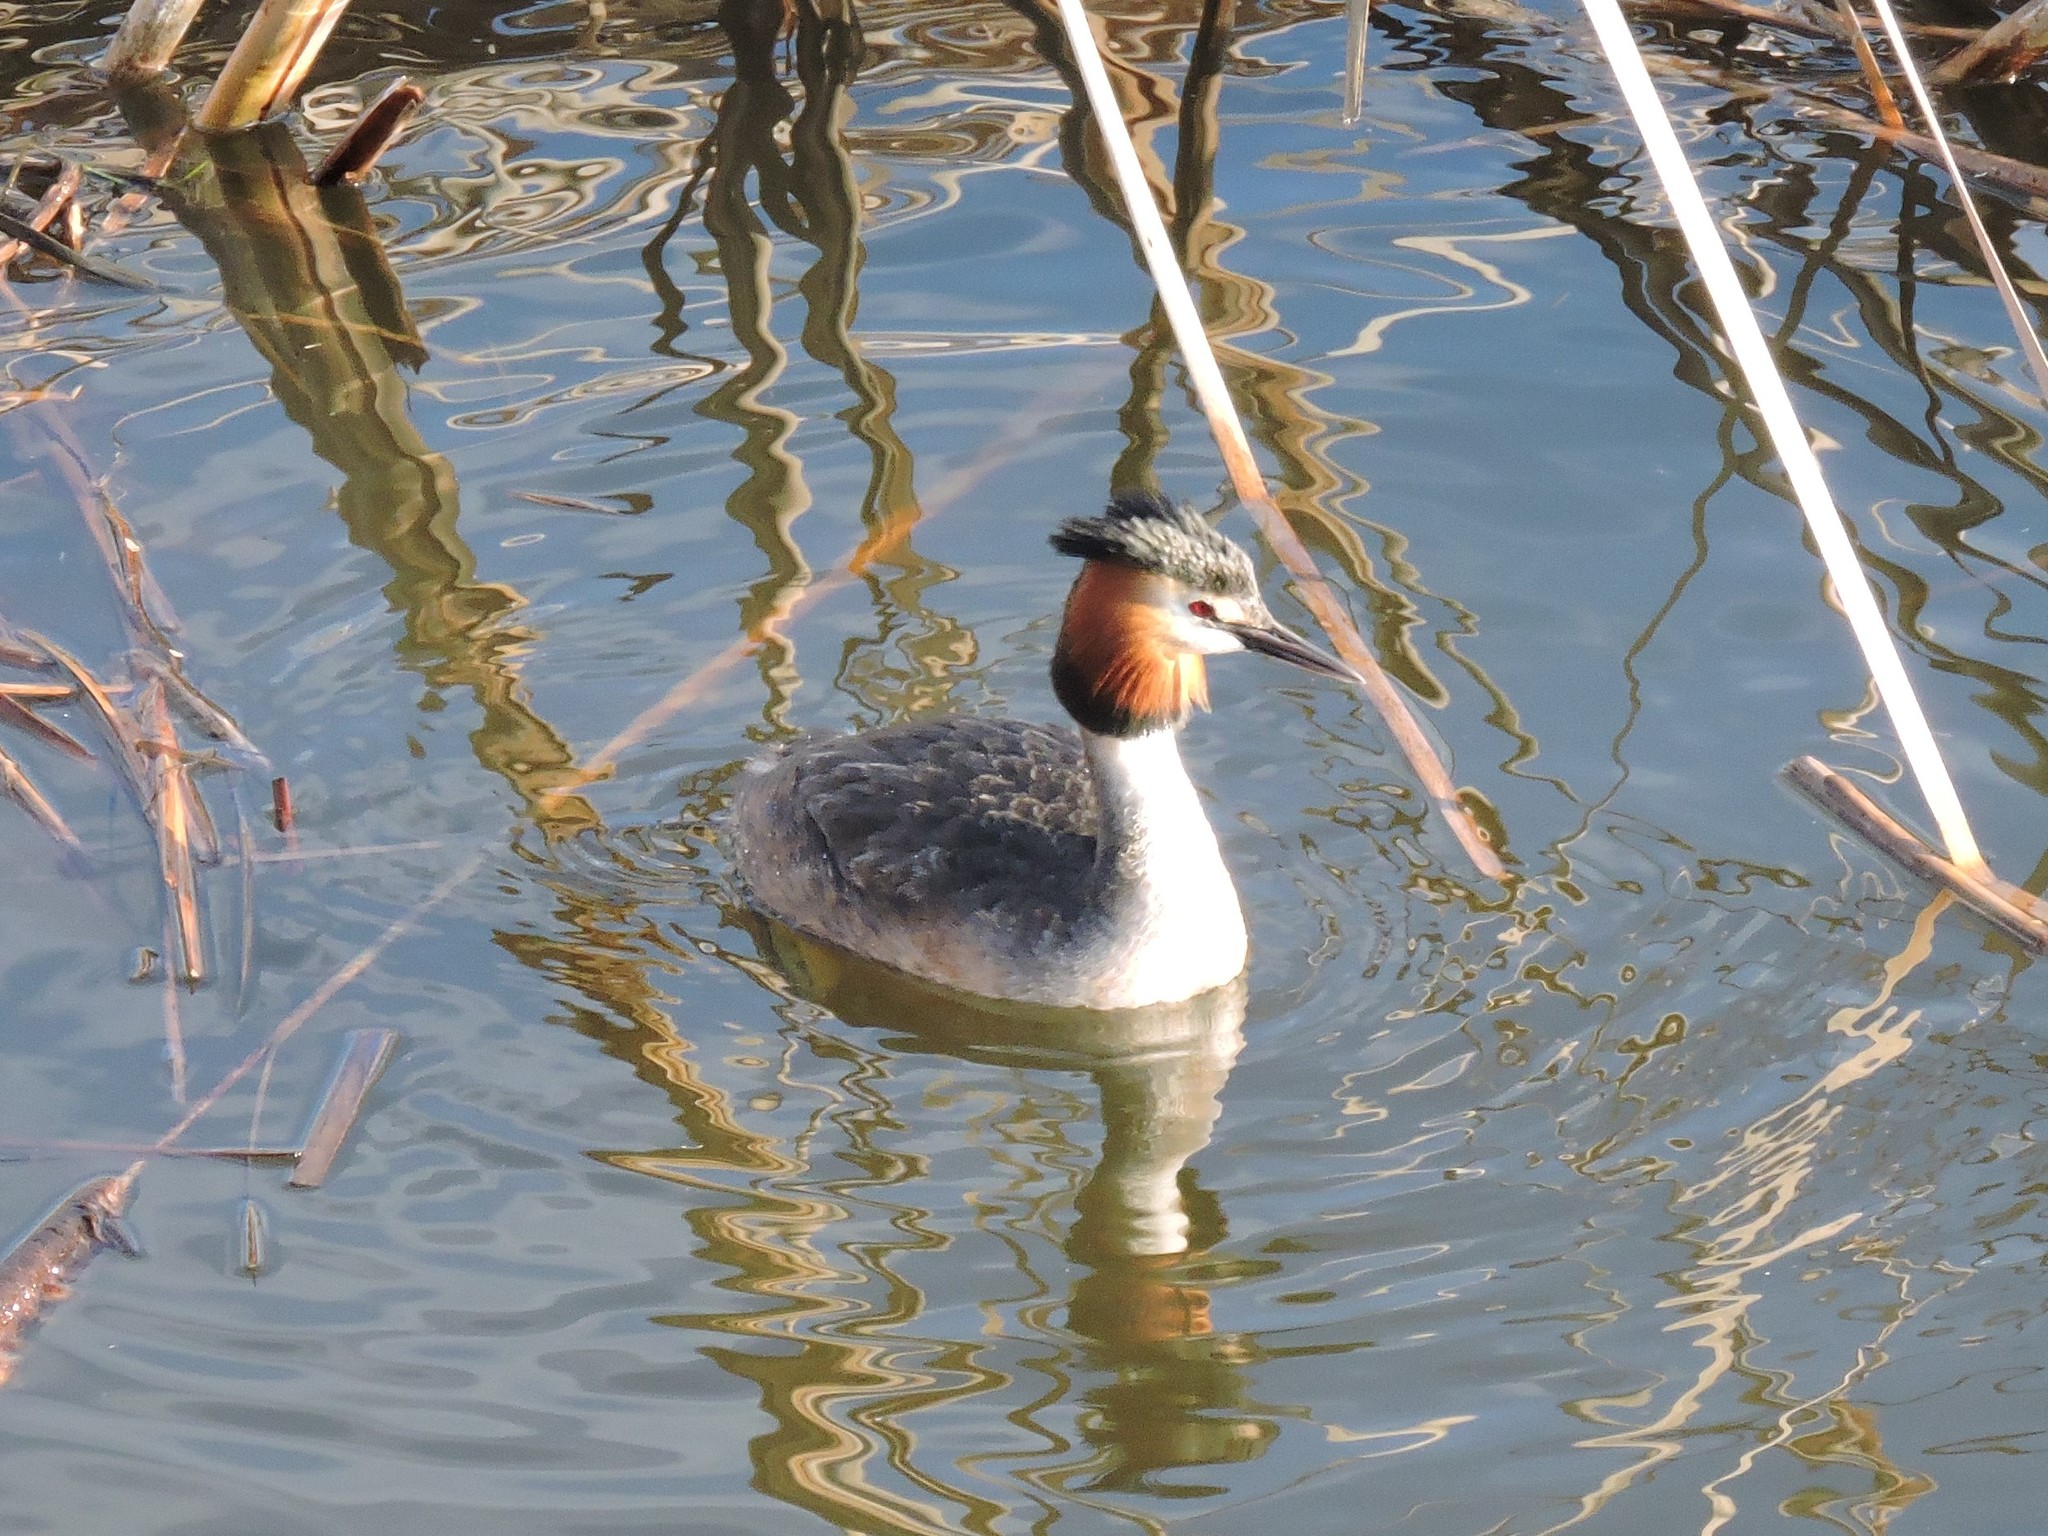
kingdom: Animalia
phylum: Chordata
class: Aves
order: Podicipediformes
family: Podicipedidae
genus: Podiceps
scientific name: Podiceps cristatus
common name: Great crested grebe
